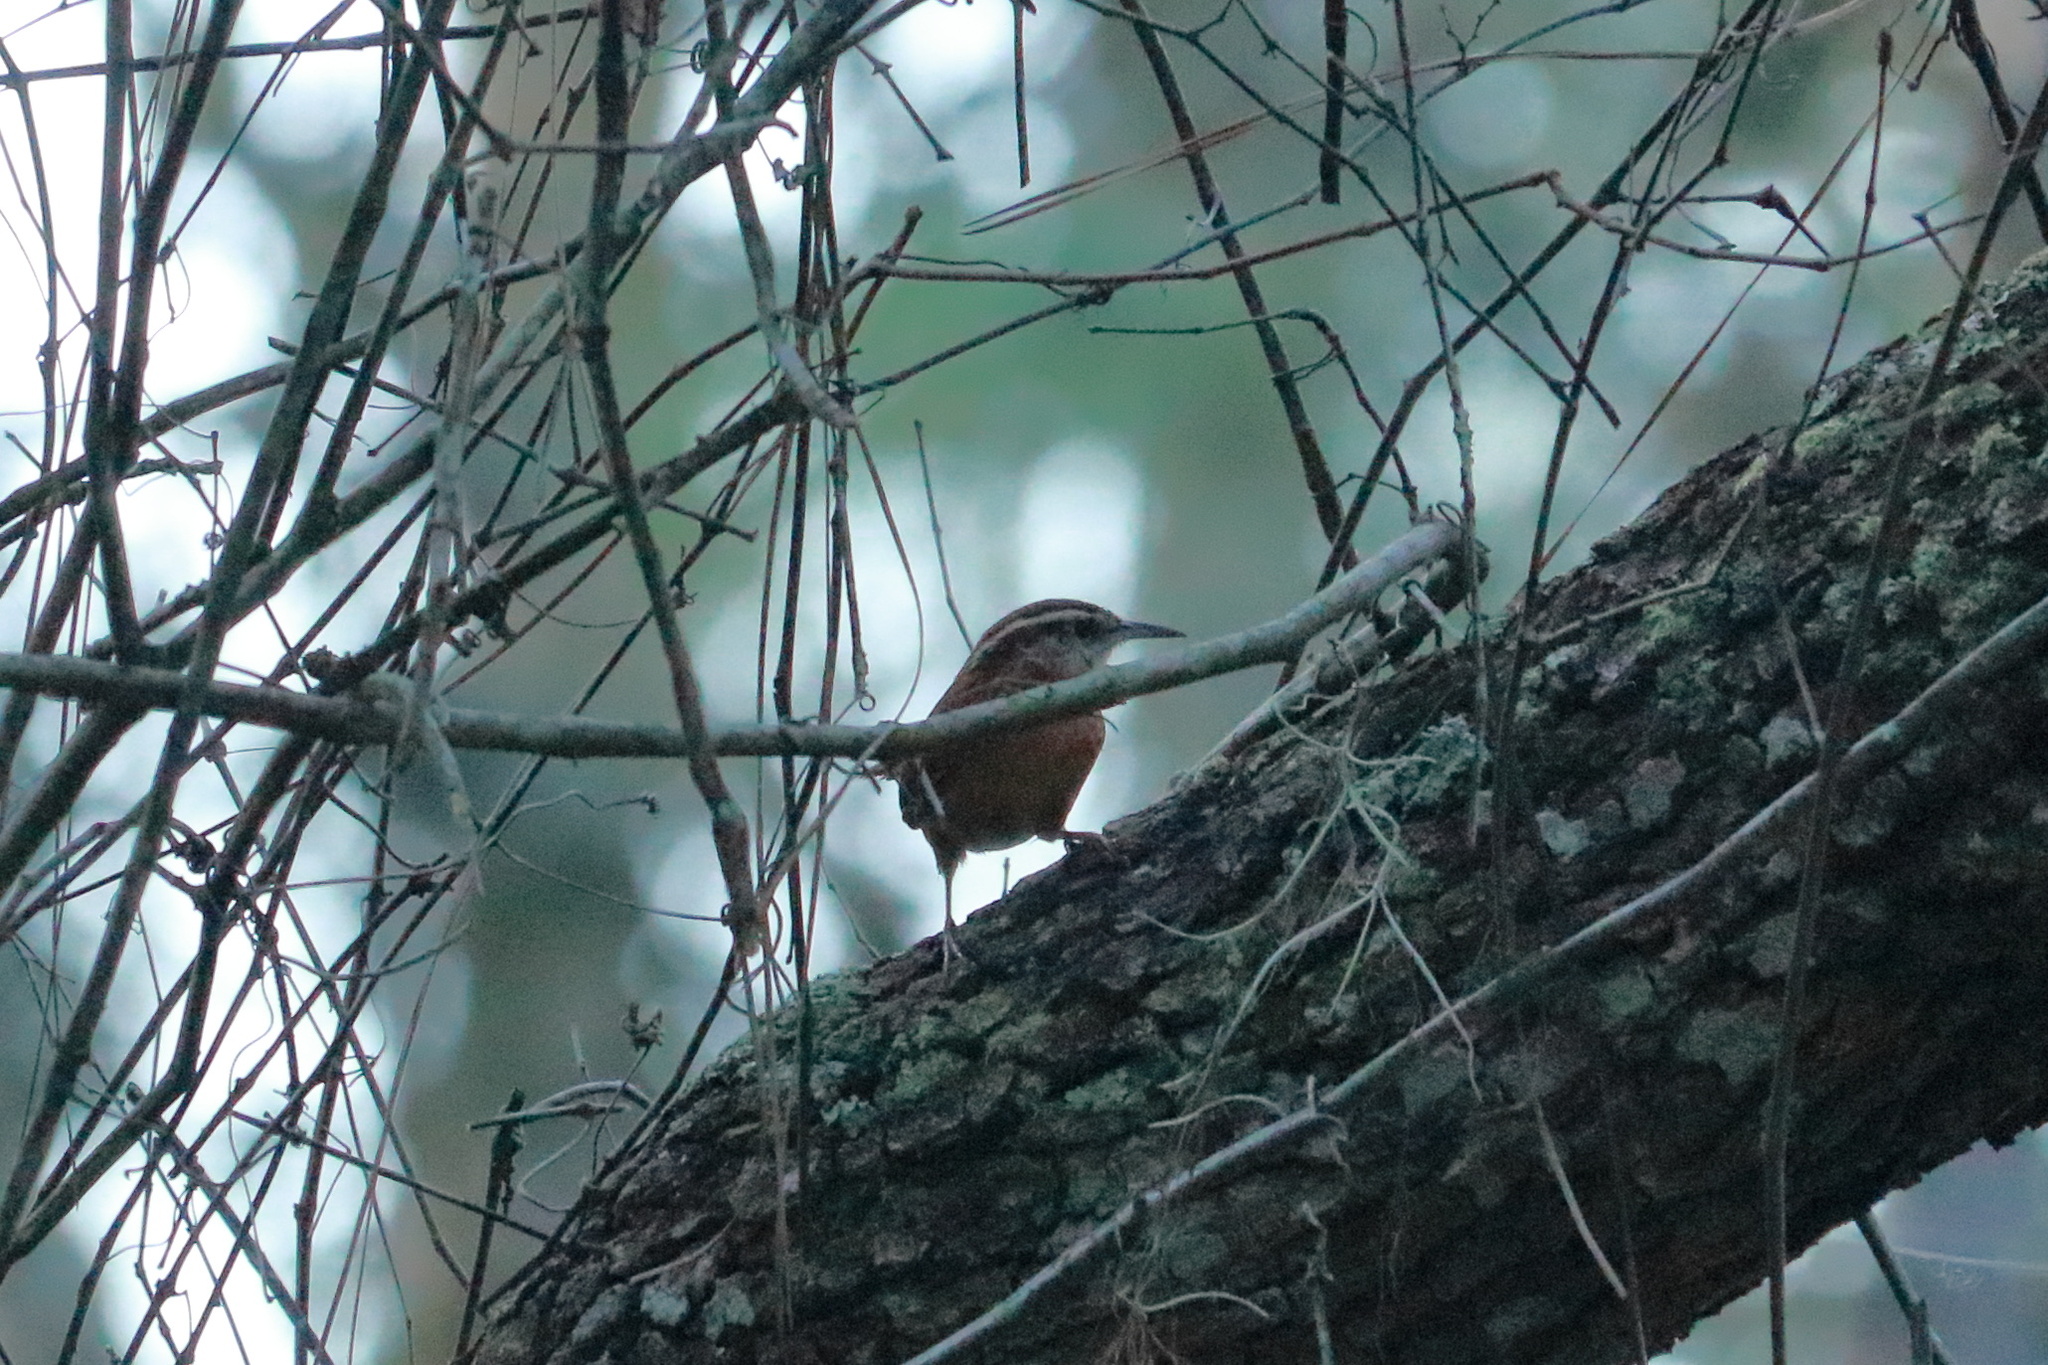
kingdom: Animalia
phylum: Chordata
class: Aves
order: Passeriformes
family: Troglodytidae
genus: Thryothorus
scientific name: Thryothorus ludovicianus
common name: Carolina wren
